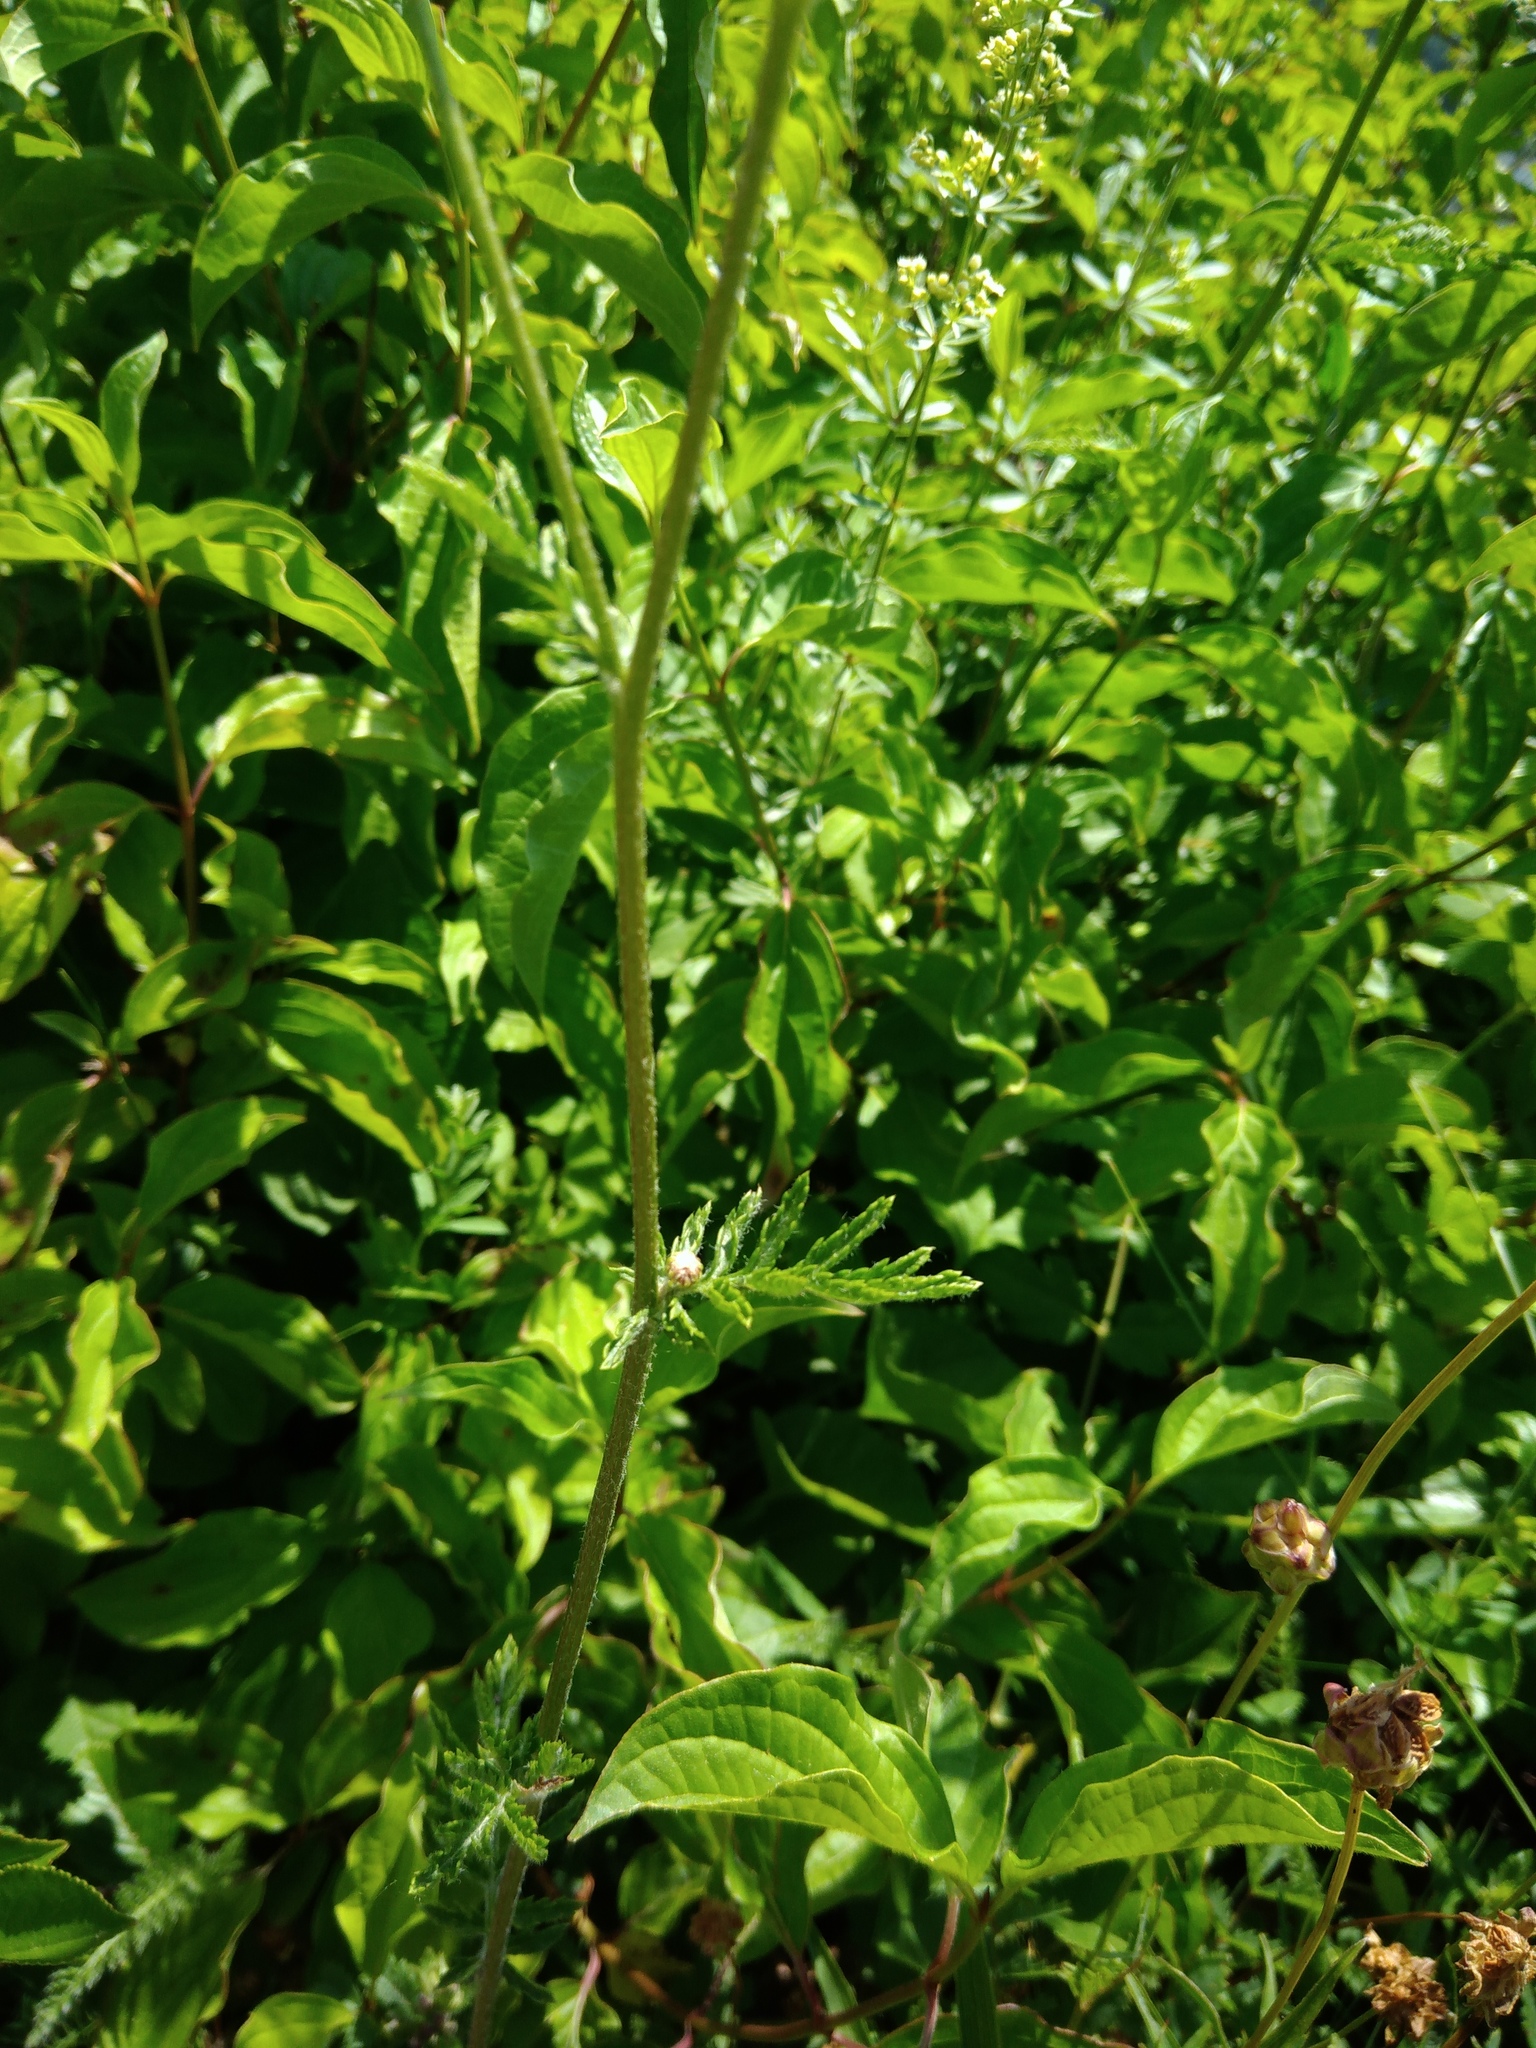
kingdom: Plantae
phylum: Tracheophyta
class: Magnoliopsida
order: Asterales
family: Asteraceae
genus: Tanacetum
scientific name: Tanacetum corymbosum
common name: Scentless feverfew
